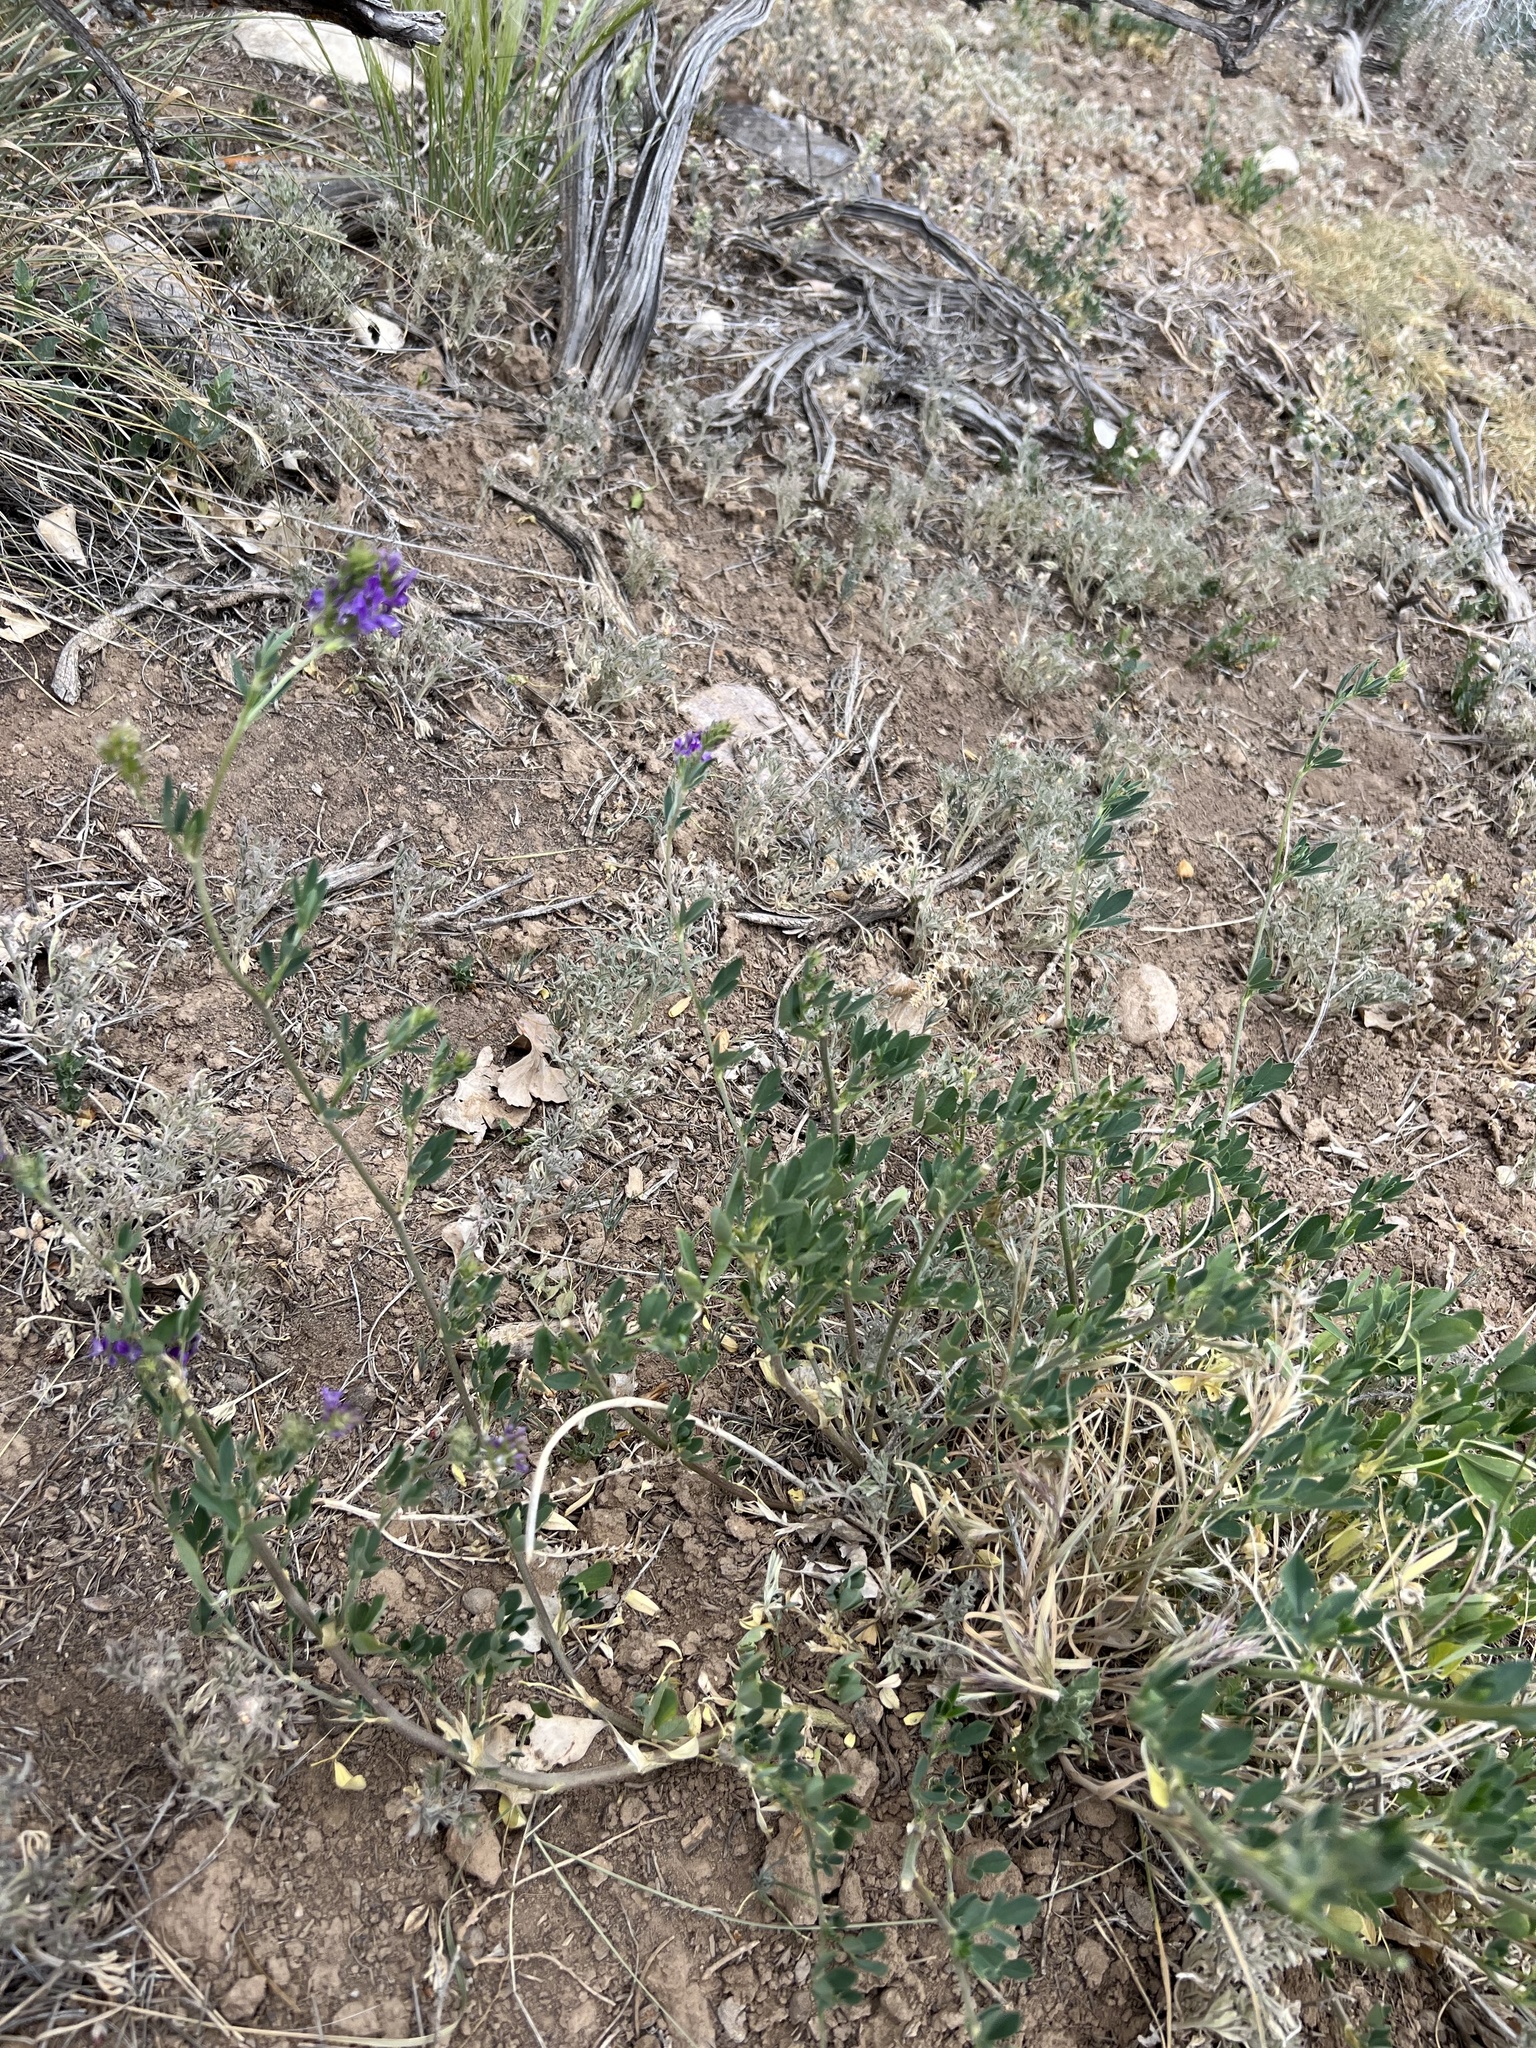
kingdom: Plantae
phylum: Tracheophyta
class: Magnoliopsida
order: Fabales
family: Fabaceae
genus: Medicago
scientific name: Medicago sativa
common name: Alfalfa
